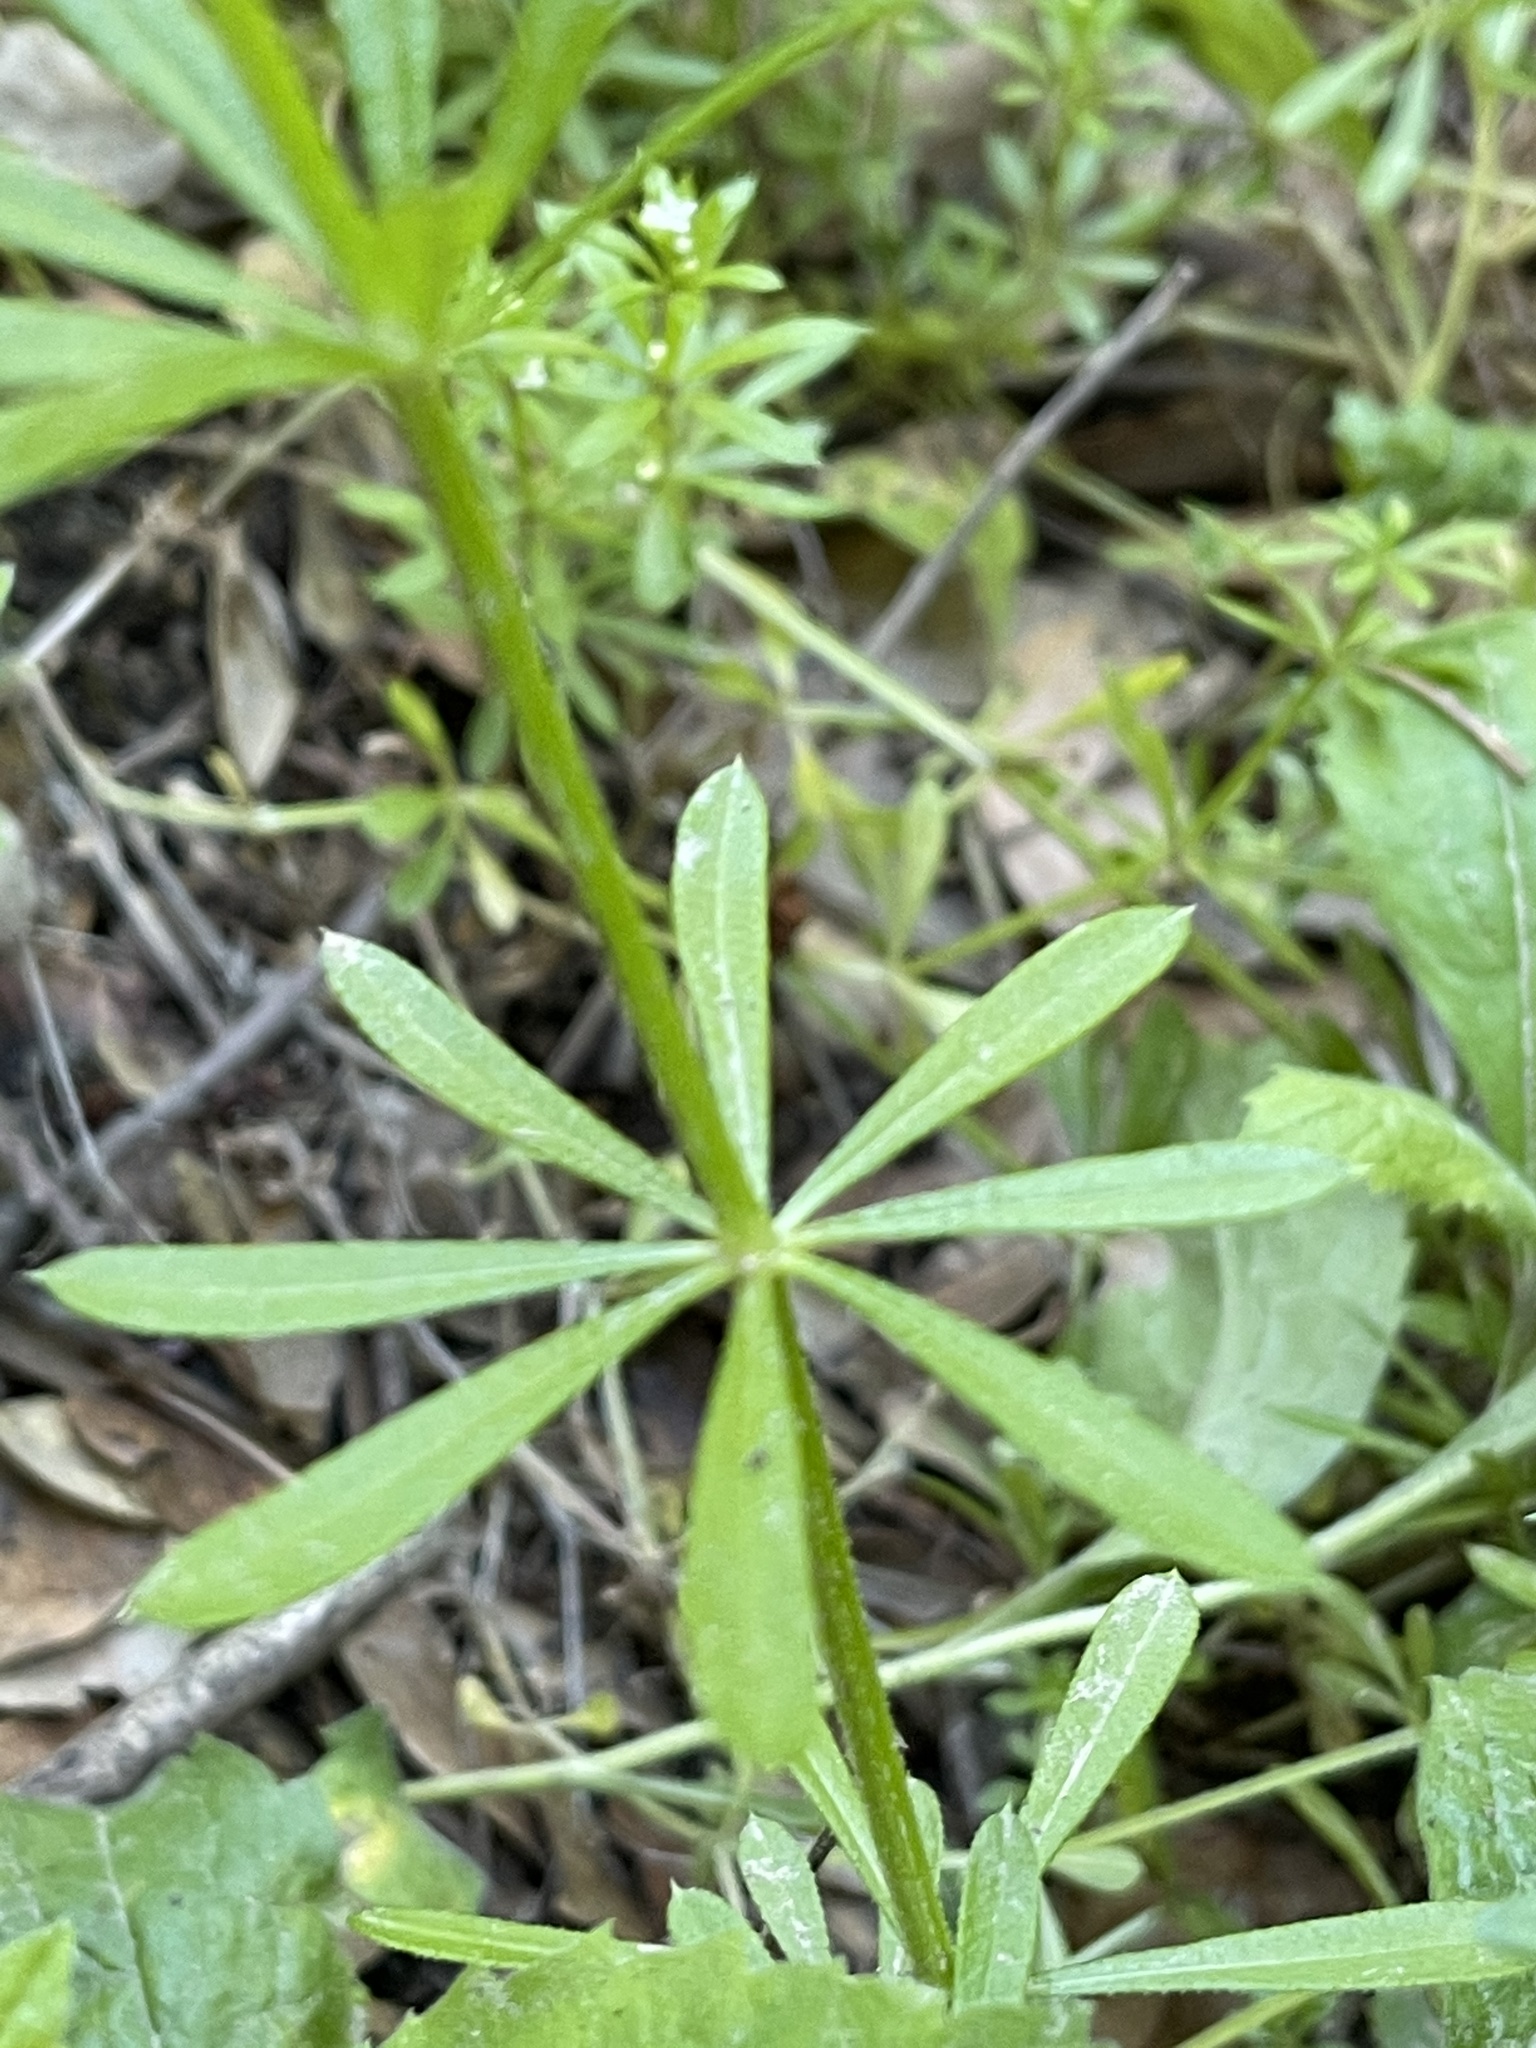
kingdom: Plantae
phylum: Tracheophyta
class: Magnoliopsida
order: Gentianales
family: Rubiaceae
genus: Galium
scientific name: Galium aparine
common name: Cleavers
